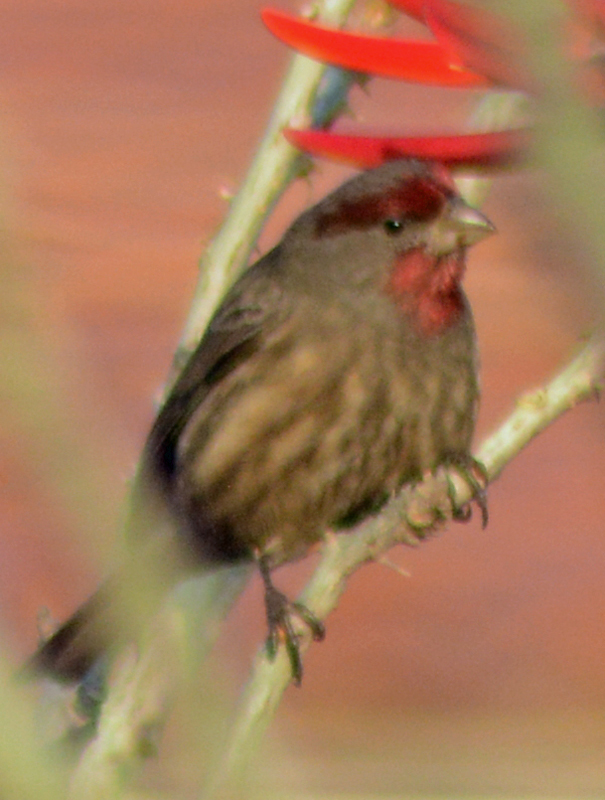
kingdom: Animalia
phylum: Chordata
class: Aves
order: Passeriformes
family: Fringillidae
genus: Haemorhous
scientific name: Haemorhous mexicanus
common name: House finch
